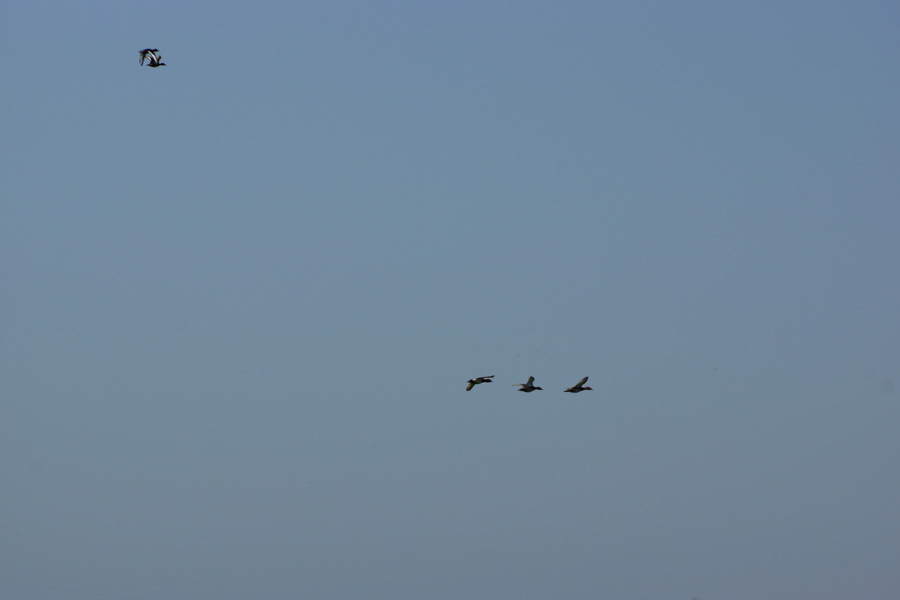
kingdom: Animalia
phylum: Chordata
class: Aves
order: Anseriformes
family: Anatidae
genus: Aythya
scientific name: Aythya nyroca
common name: Ferruginous duck
